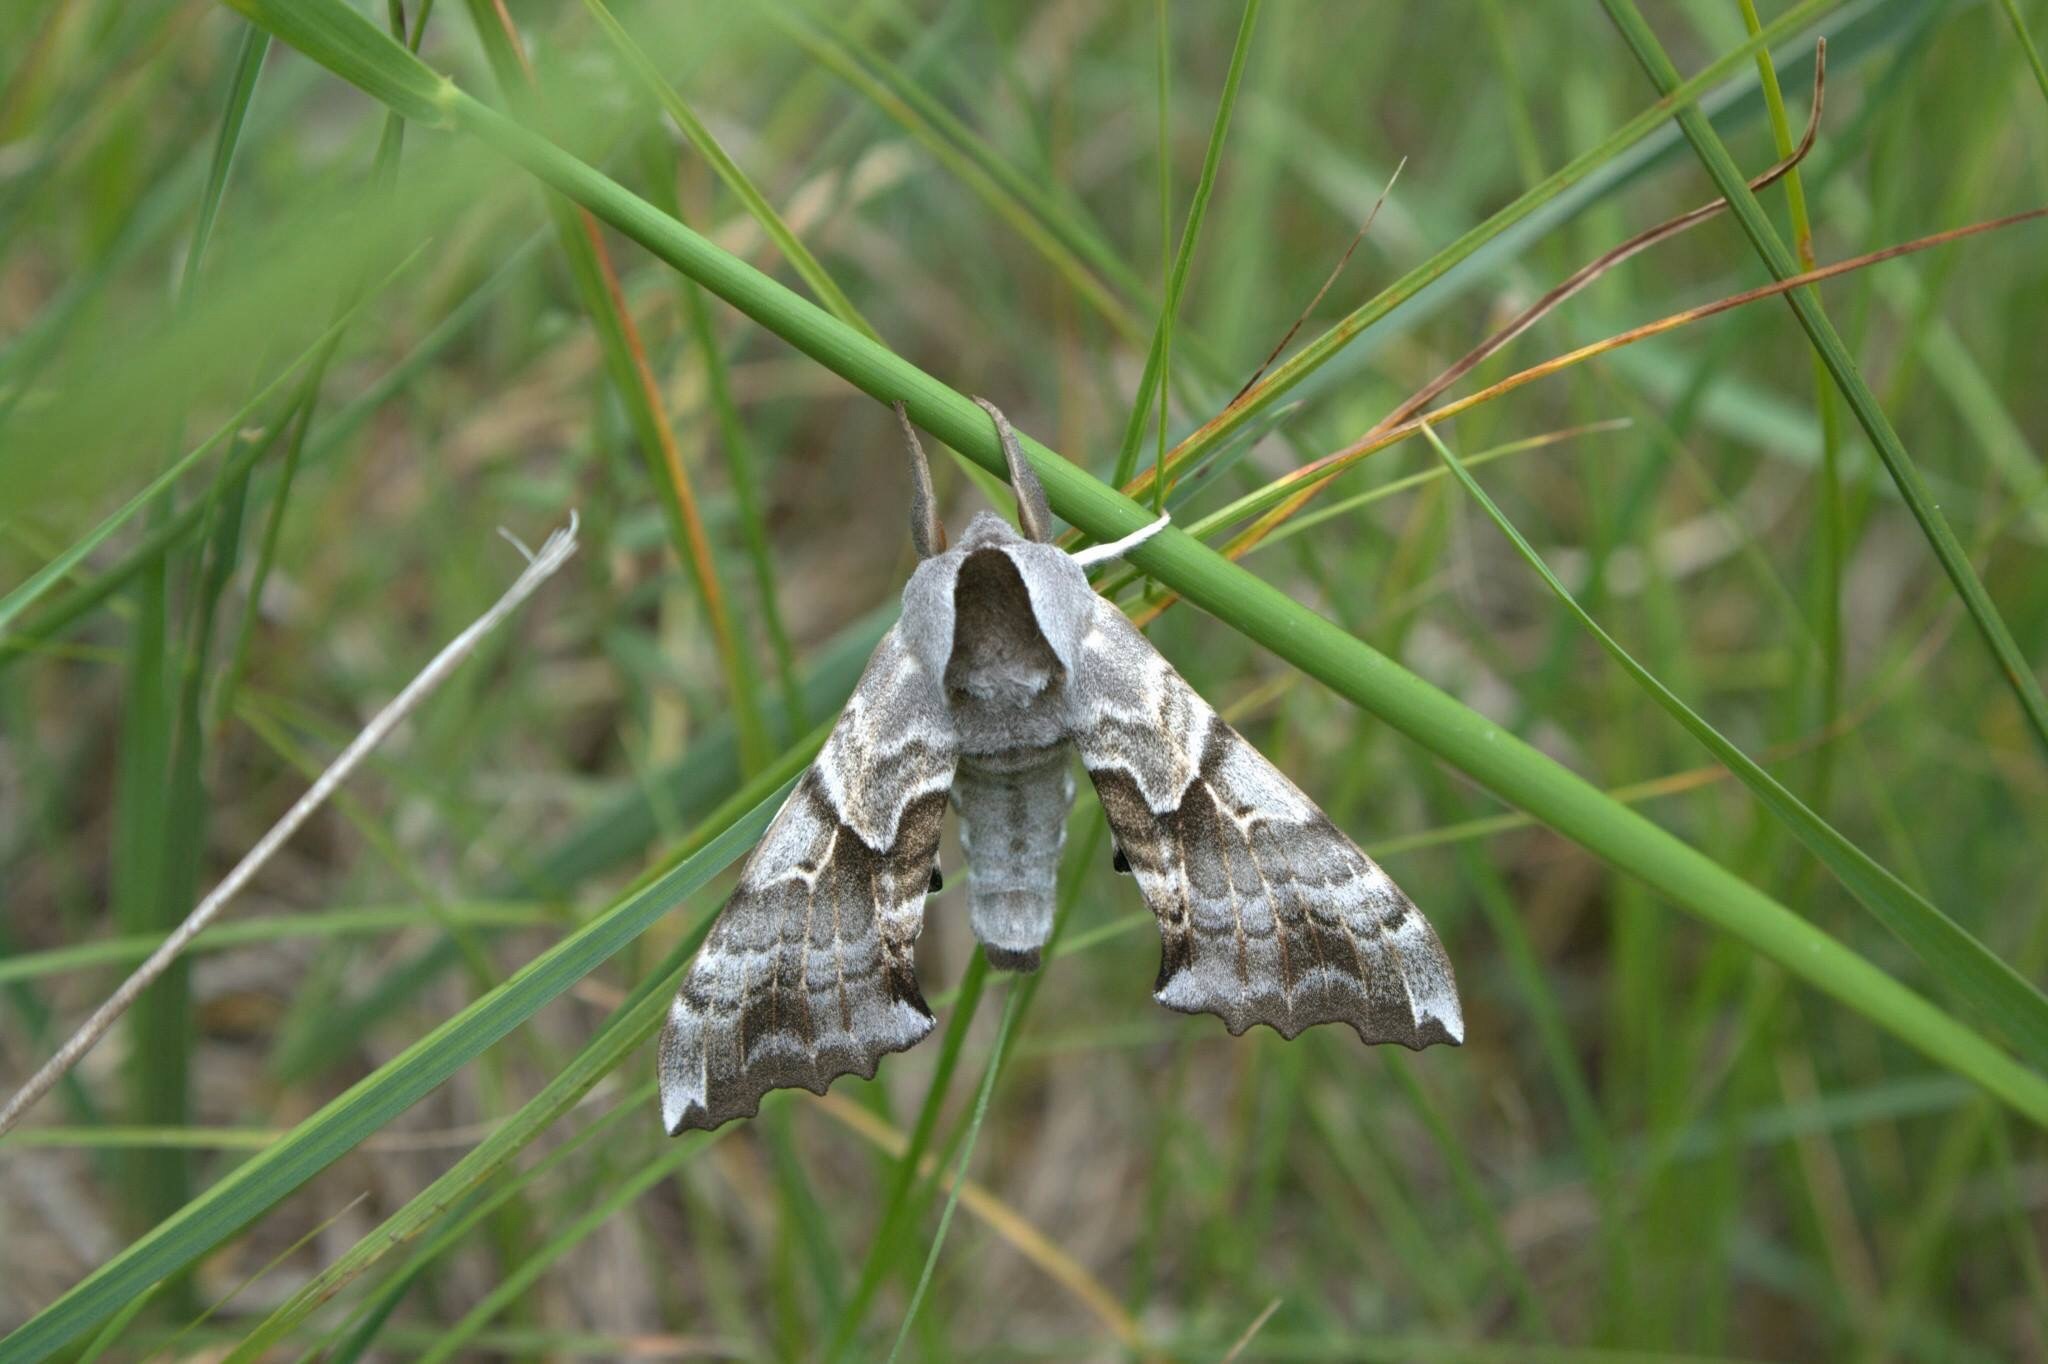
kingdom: Animalia
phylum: Arthropoda
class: Insecta
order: Lepidoptera
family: Sphingidae
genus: Smerinthus
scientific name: Smerinthus cerisyi
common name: Cerisy's sphinx moth
